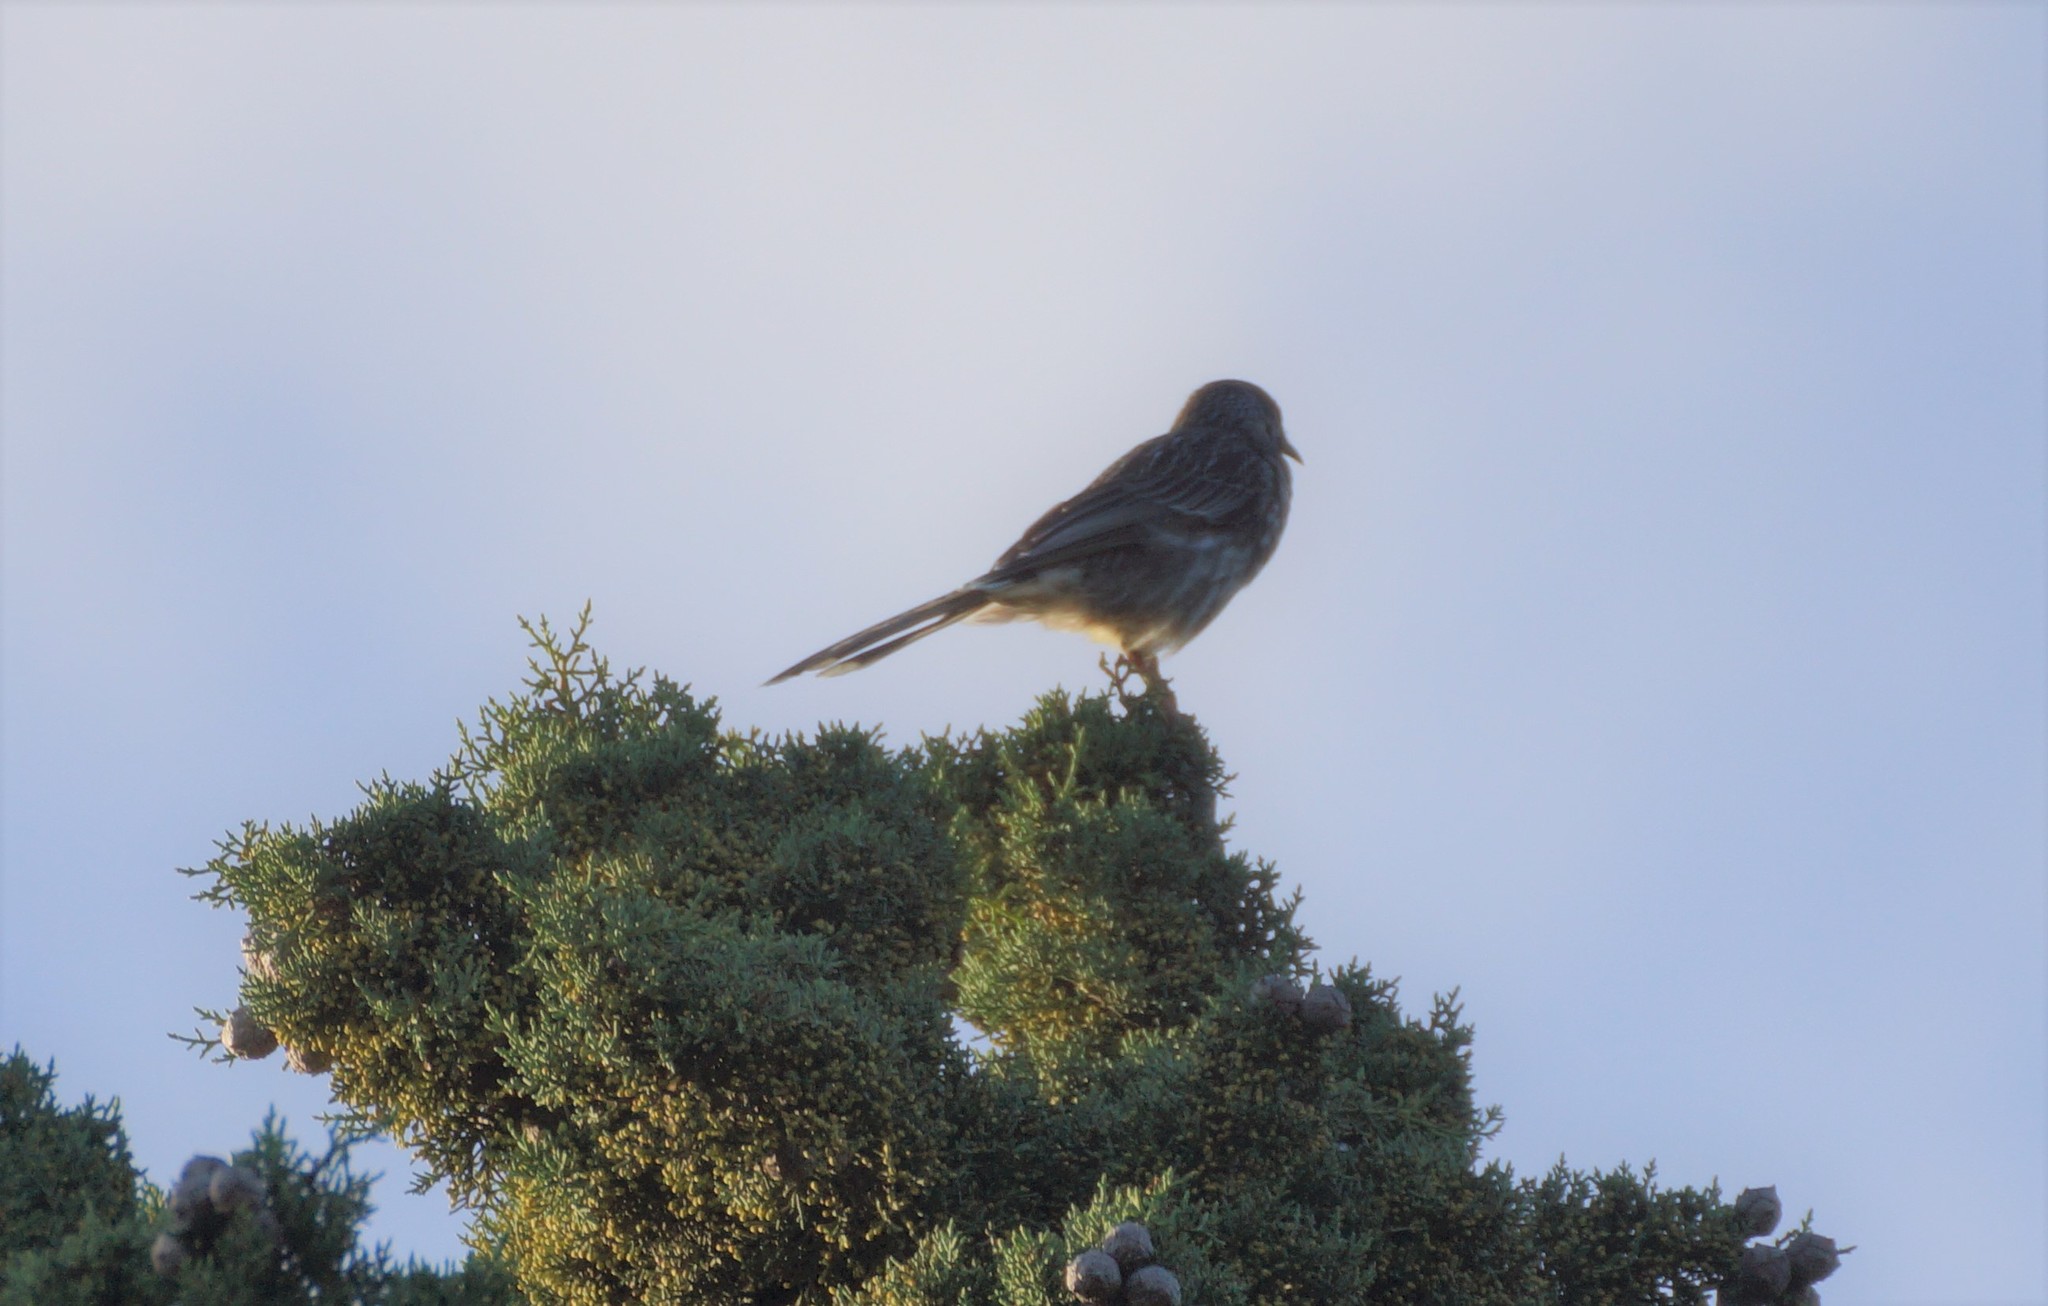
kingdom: Animalia
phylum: Chordata
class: Aves
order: Passeriformes
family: Meliphagidae
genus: Anthochaera
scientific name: Anthochaera carunculata
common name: Red wattlebird
